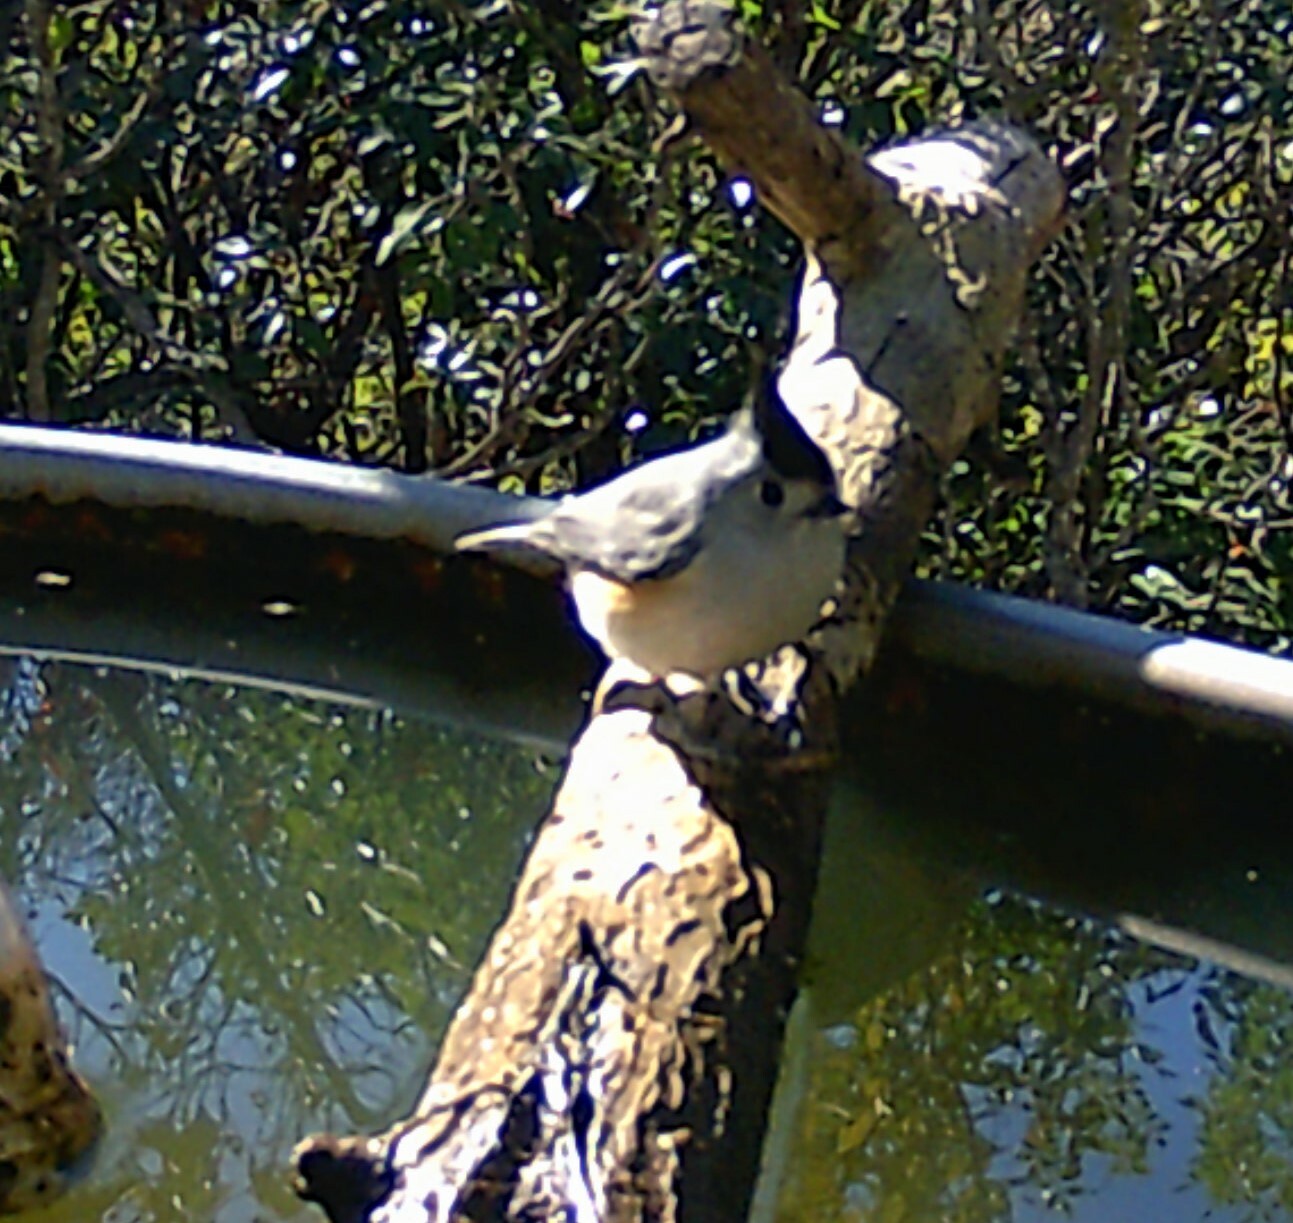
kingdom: Animalia
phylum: Chordata
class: Aves
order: Passeriformes
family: Paridae
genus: Baeolophus
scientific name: Baeolophus atricristatus
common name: Black-crested titmouse
